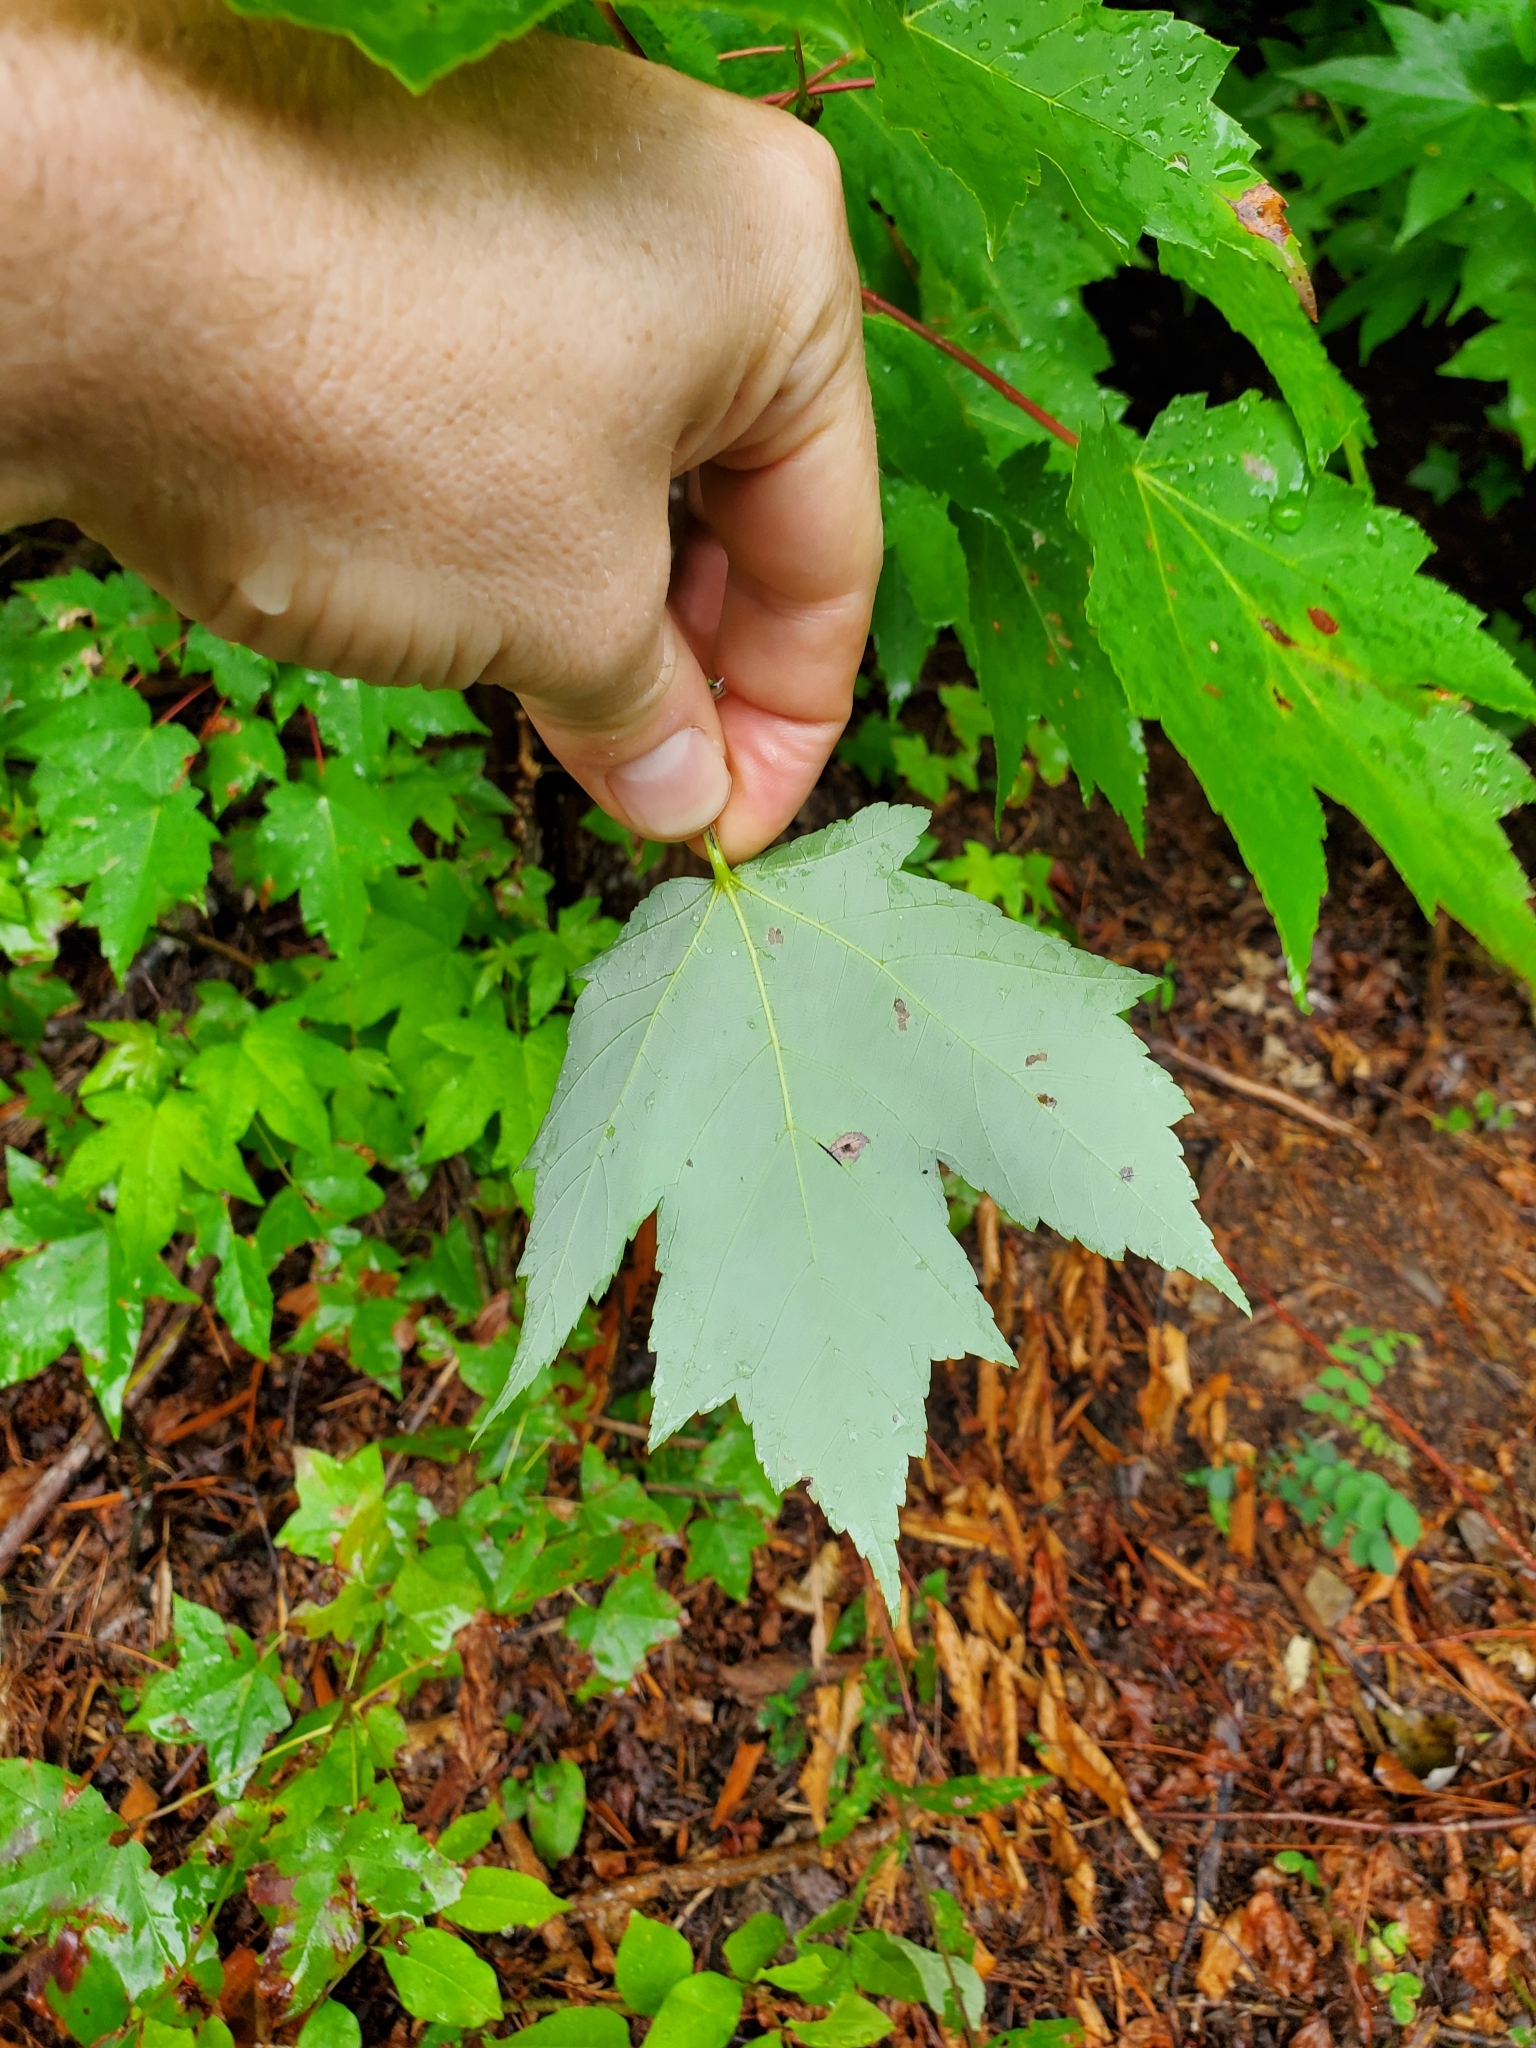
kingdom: Plantae
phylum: Tracheophyta
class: Magnoliopsida
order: Sapindales
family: Sapindaceae
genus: Acer
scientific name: Acer rubrum
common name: Red maple
